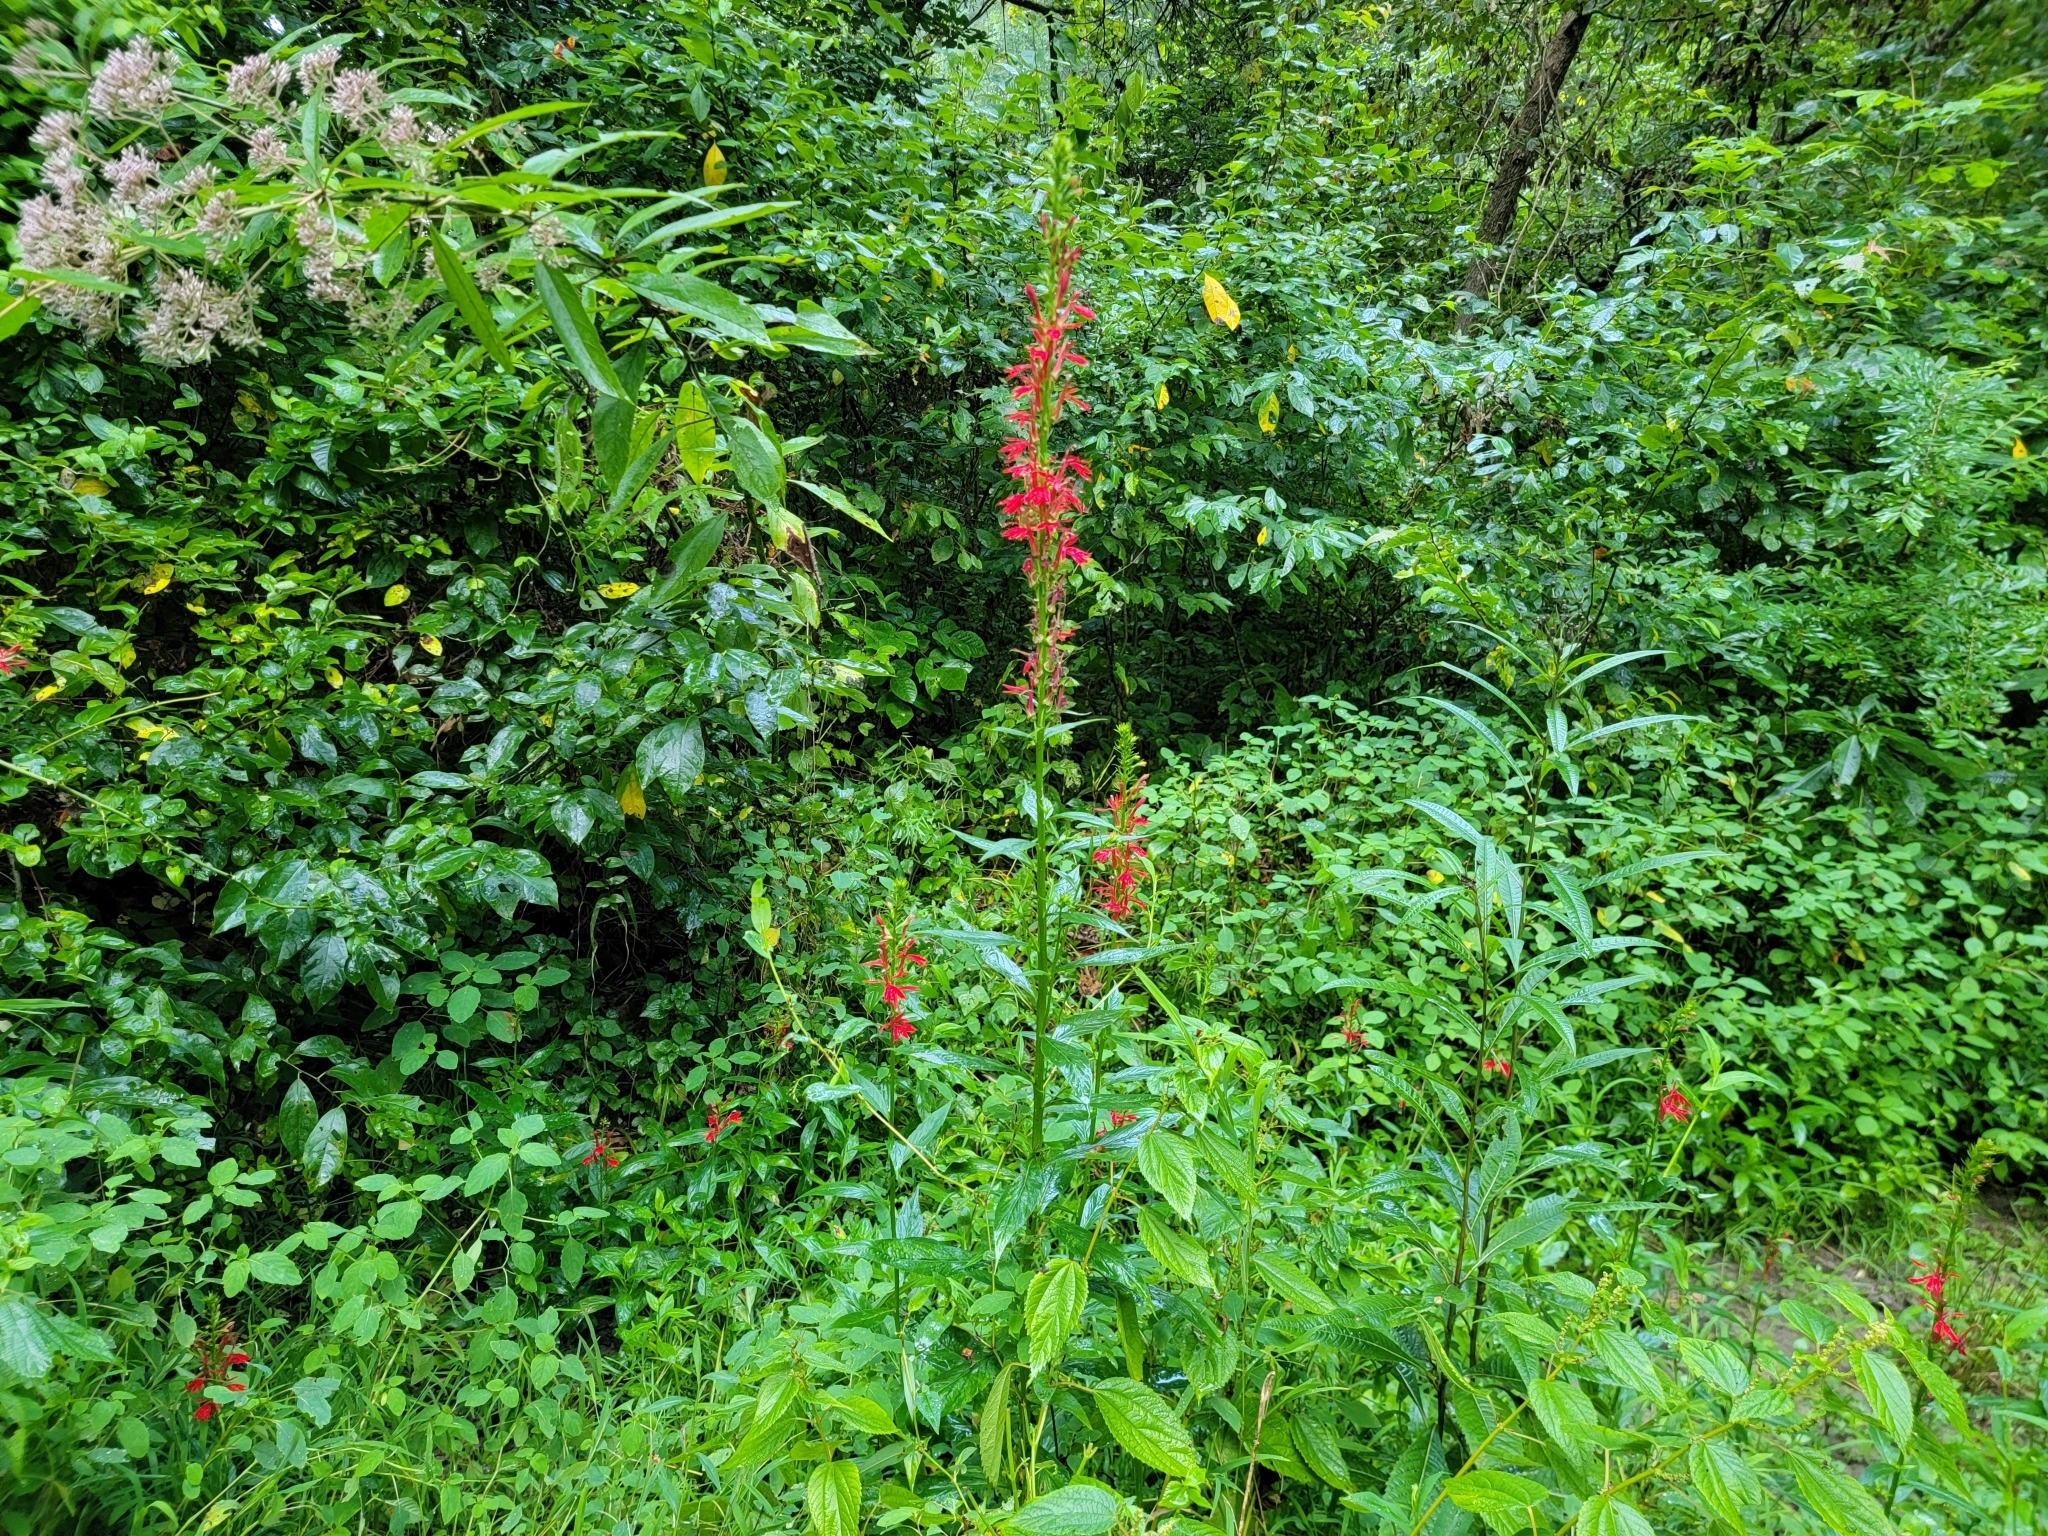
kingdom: Plantae
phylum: Tracheophyta
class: Magnoliopsida
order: Asterales
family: Campanulaceae
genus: Lobelia
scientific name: Lobelia cardinalis
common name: Cardinal flower
